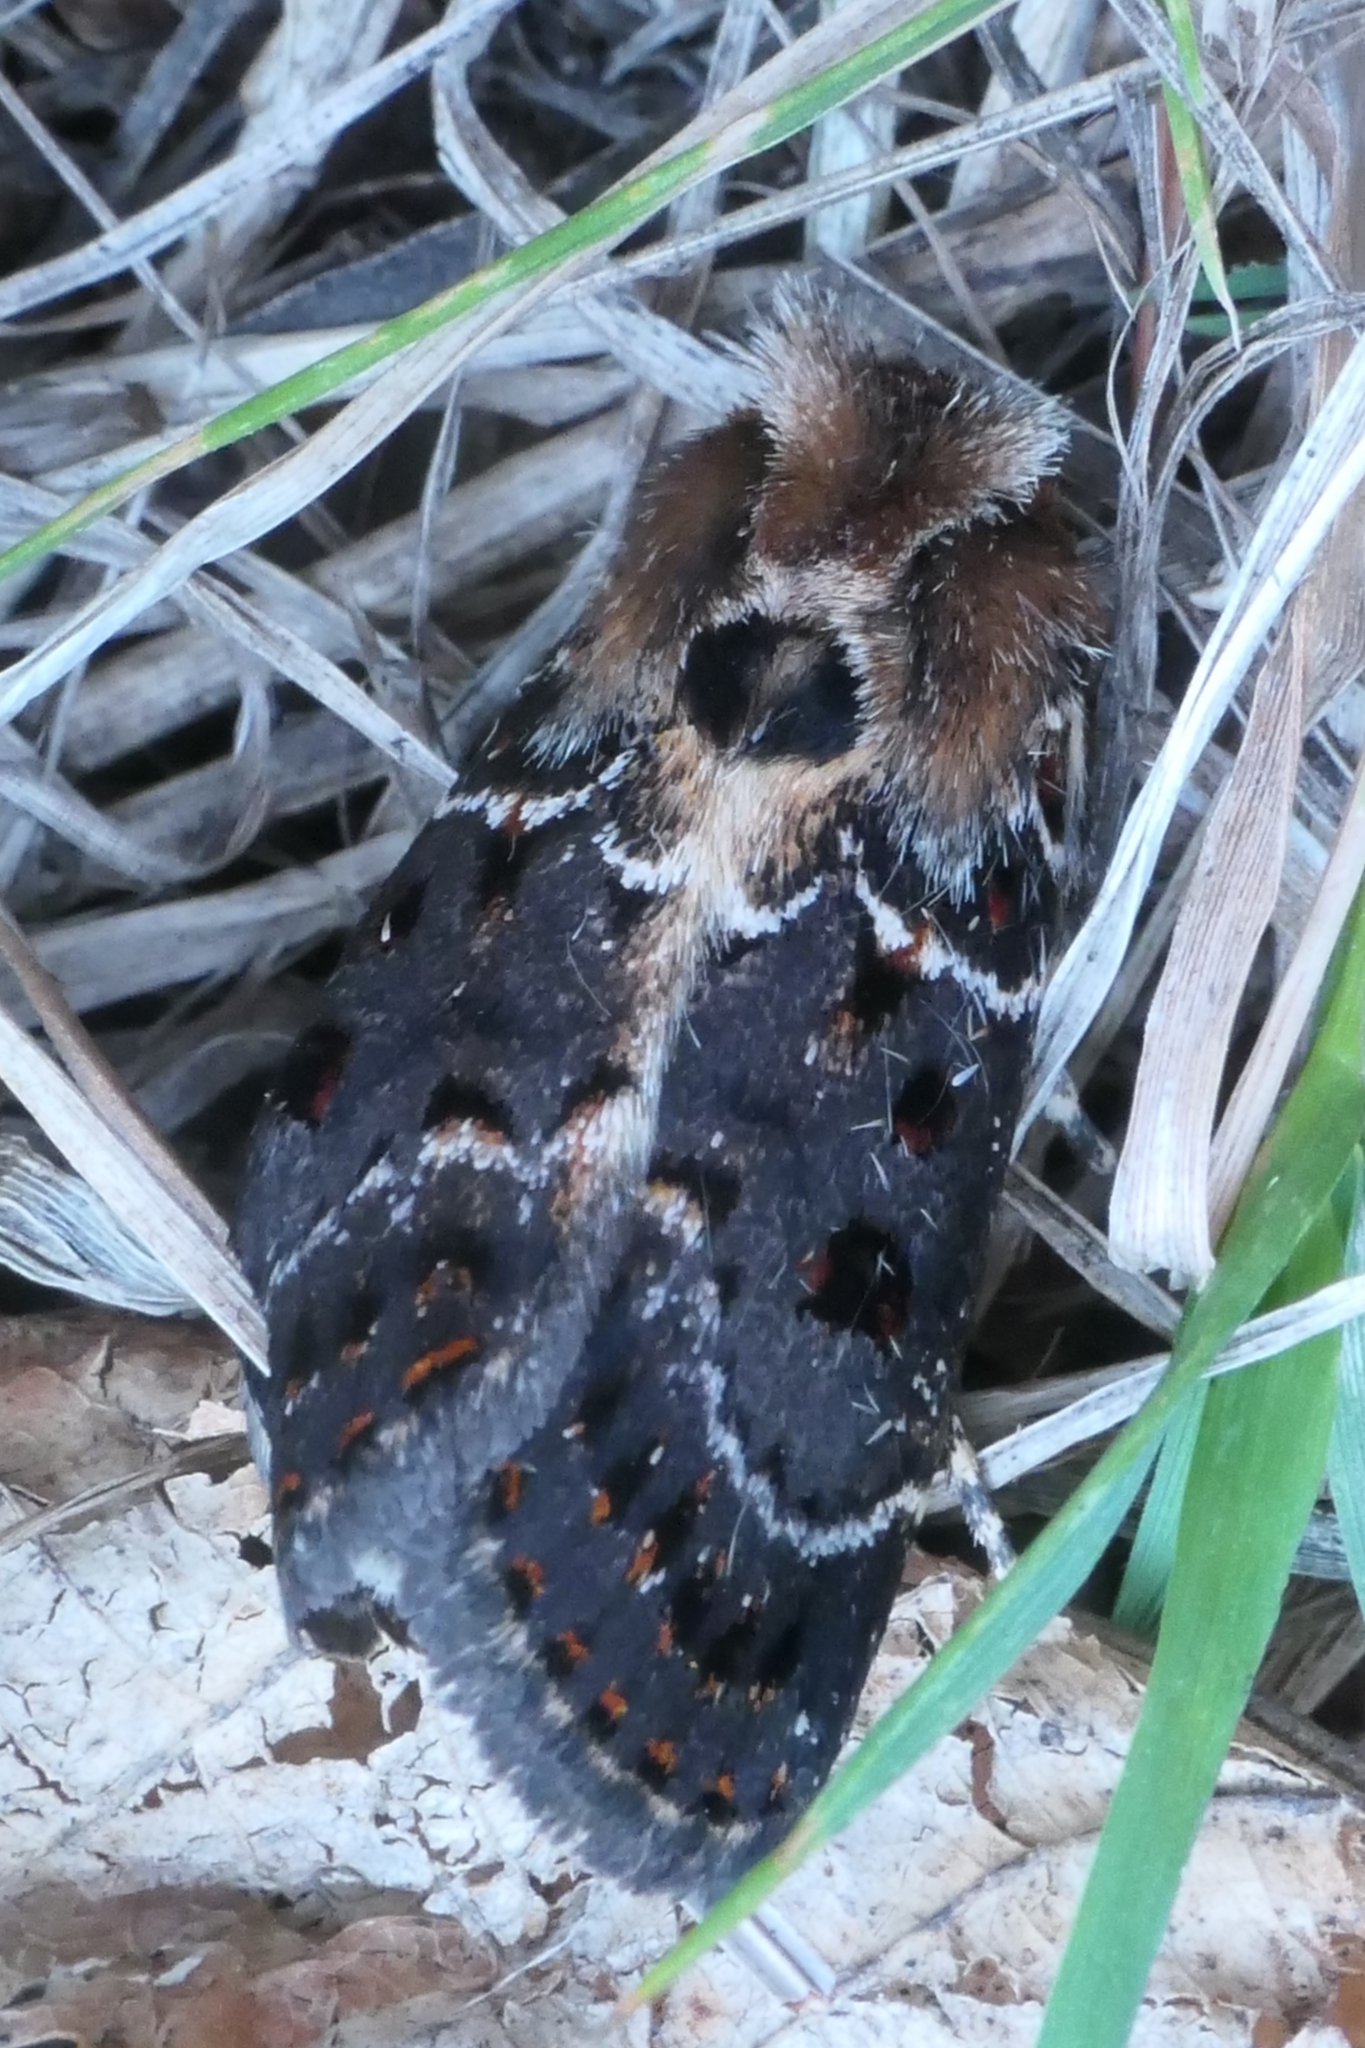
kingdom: Animalia
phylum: Arthropoda
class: Insecta
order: Lepidoptera
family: Noctuidae
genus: Proteuxoa
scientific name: Proteuxoa sanguinipuncta
